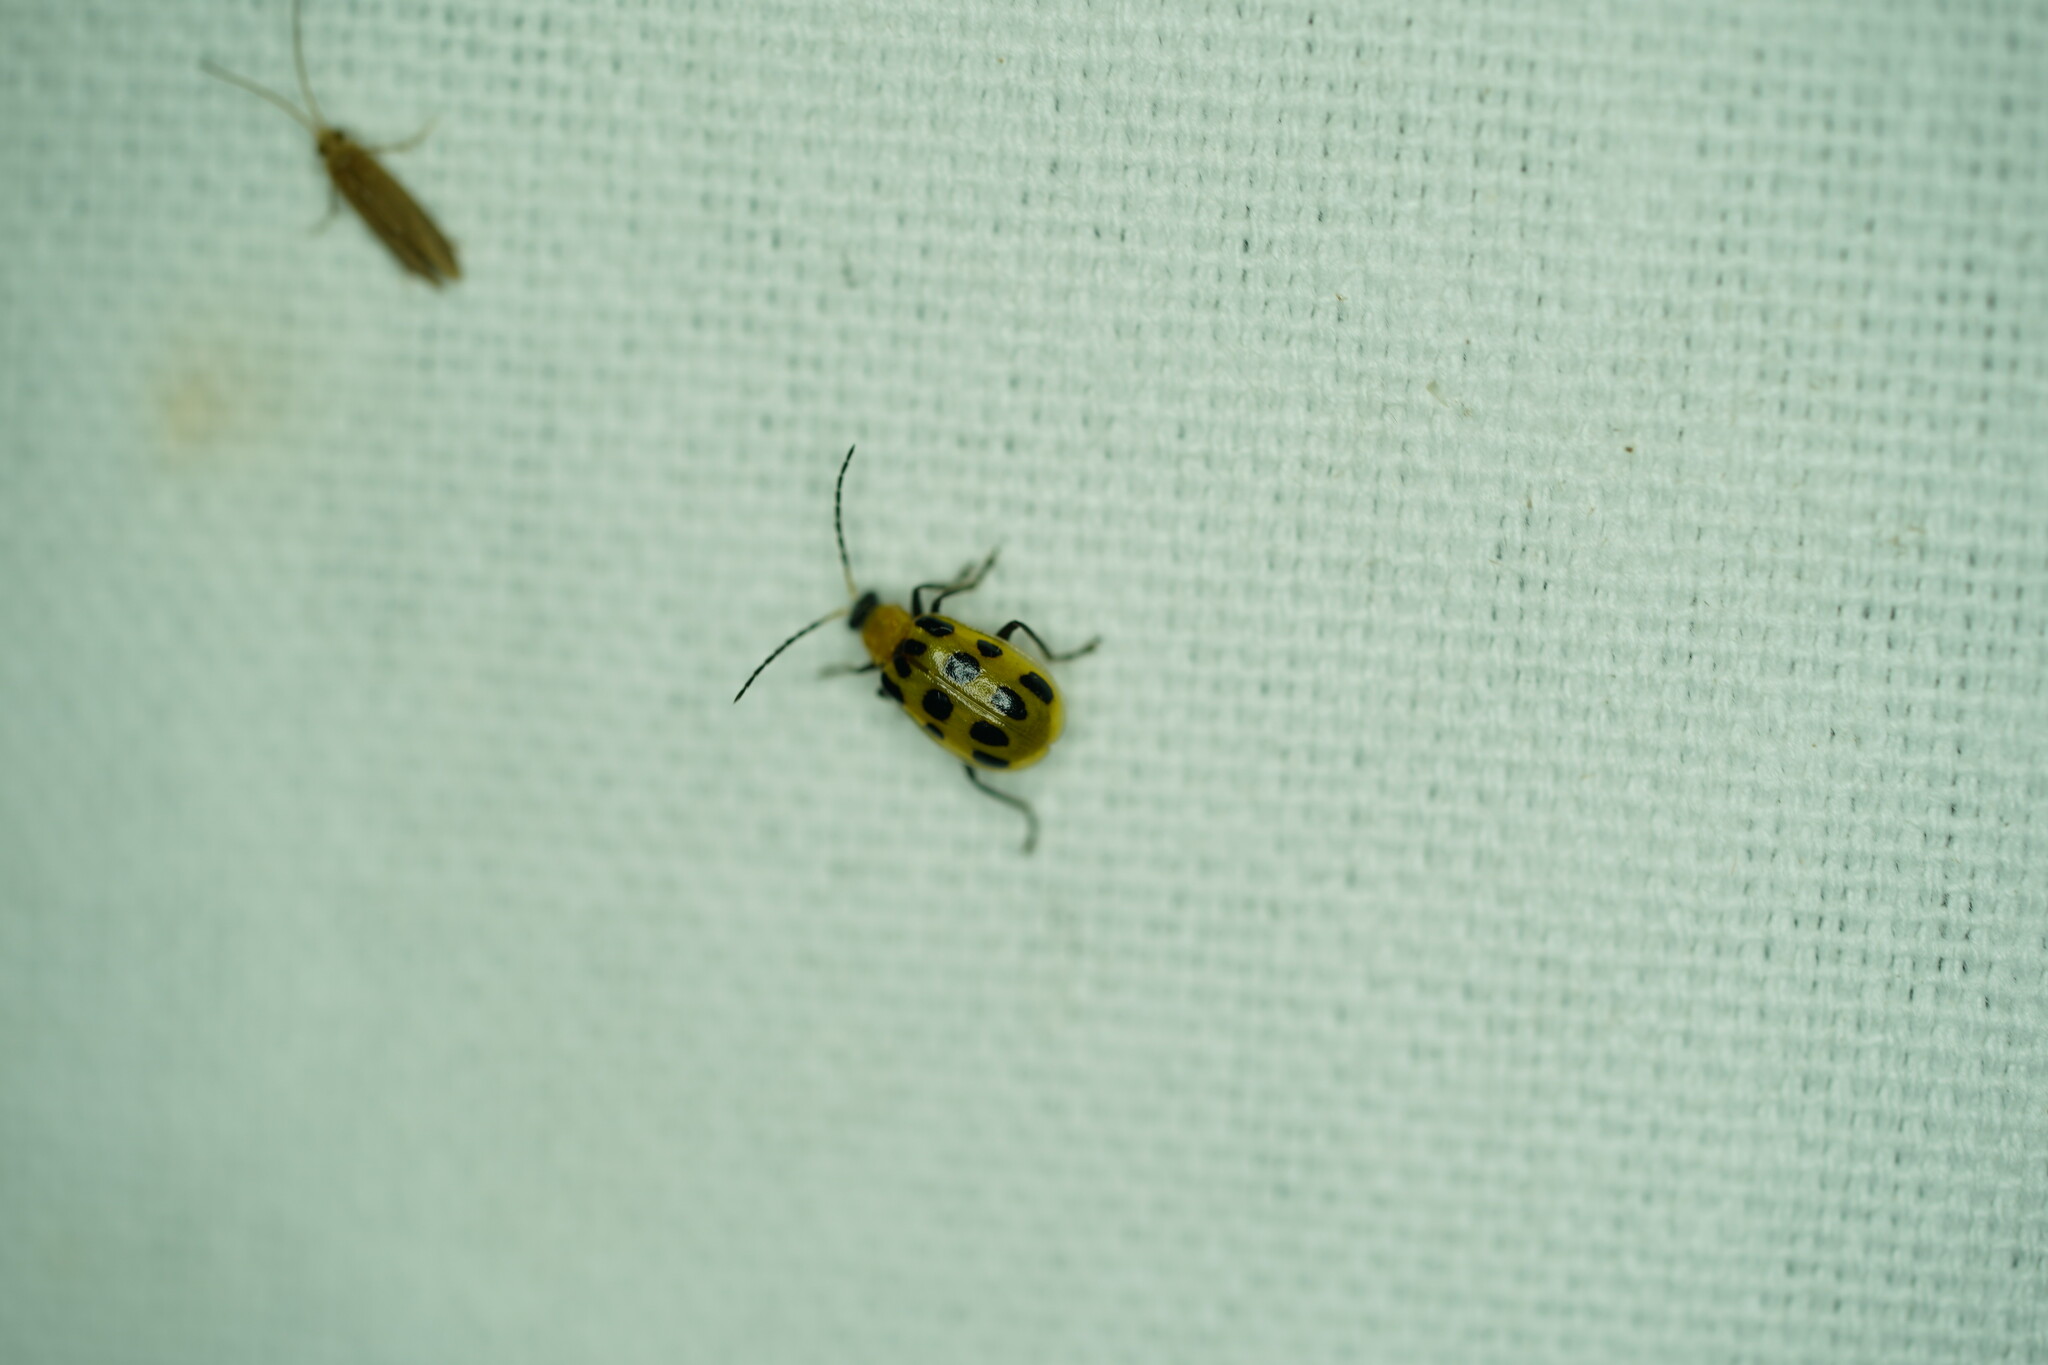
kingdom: Animalia
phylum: Arthropoda
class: Insecta
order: Coleoptera
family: Chrysomelidae
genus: Diabrotica
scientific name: Diabrotica undecimpunctata
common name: Spotted cucumber beetle
